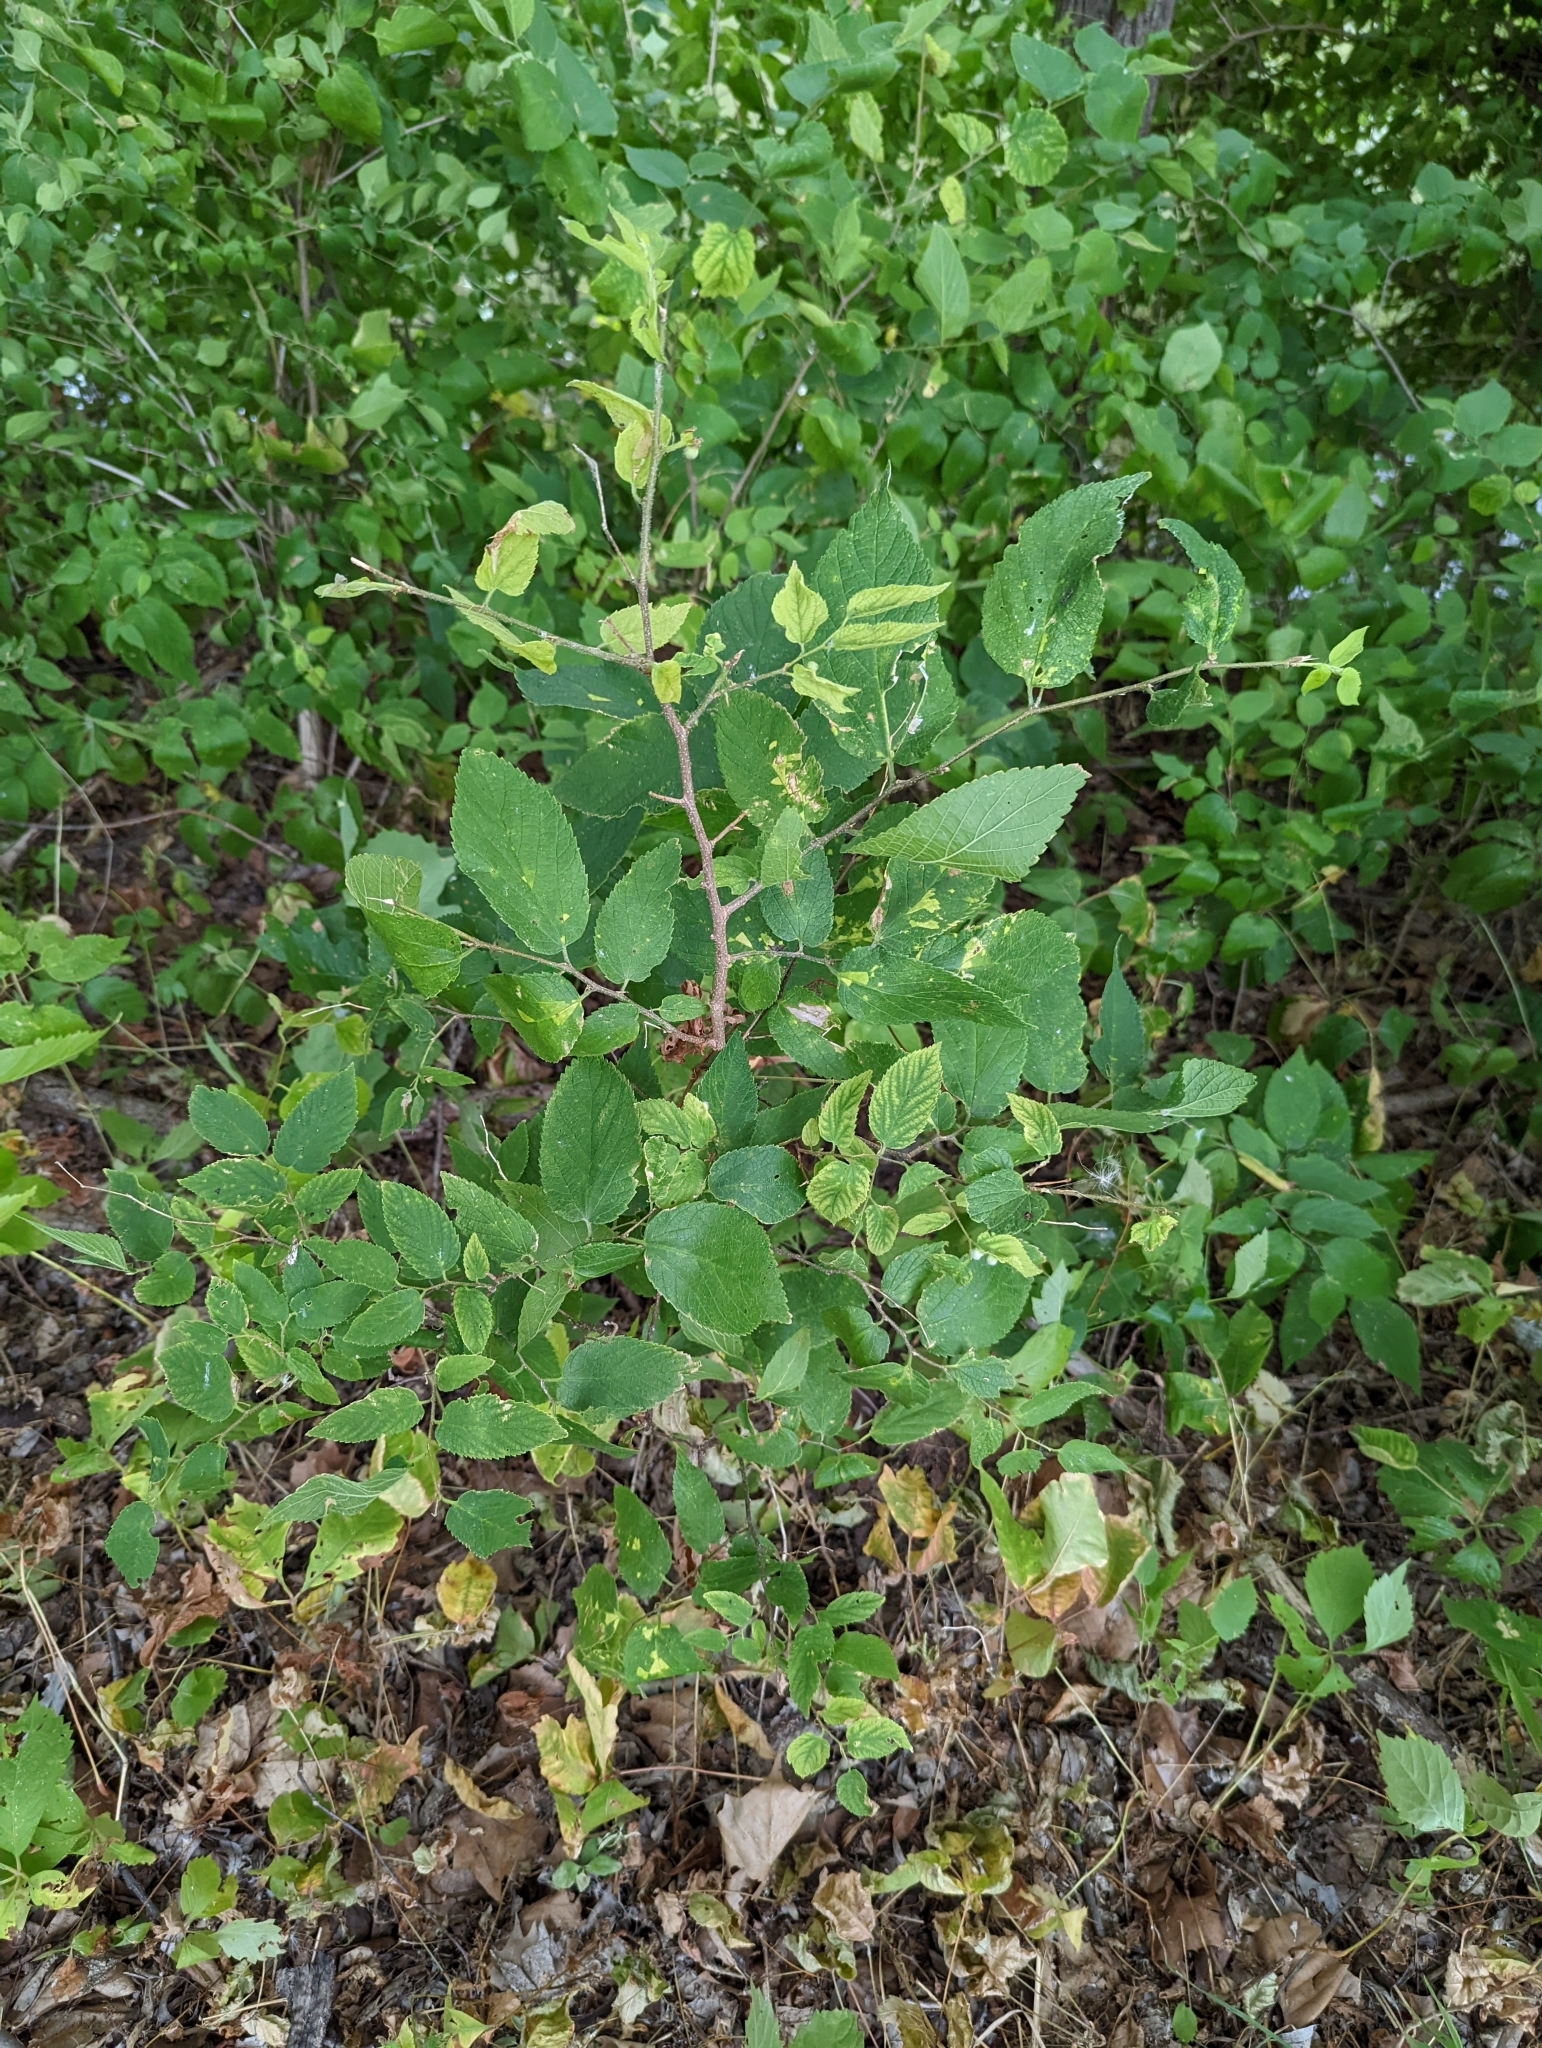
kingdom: Animalia
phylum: Arthropoda
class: Insecta
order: Hemiptera
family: Aphalaridae
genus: Pachypsylla
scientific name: Pachypsylla celtidismamma
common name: Hackberry nipplegall psyllid
